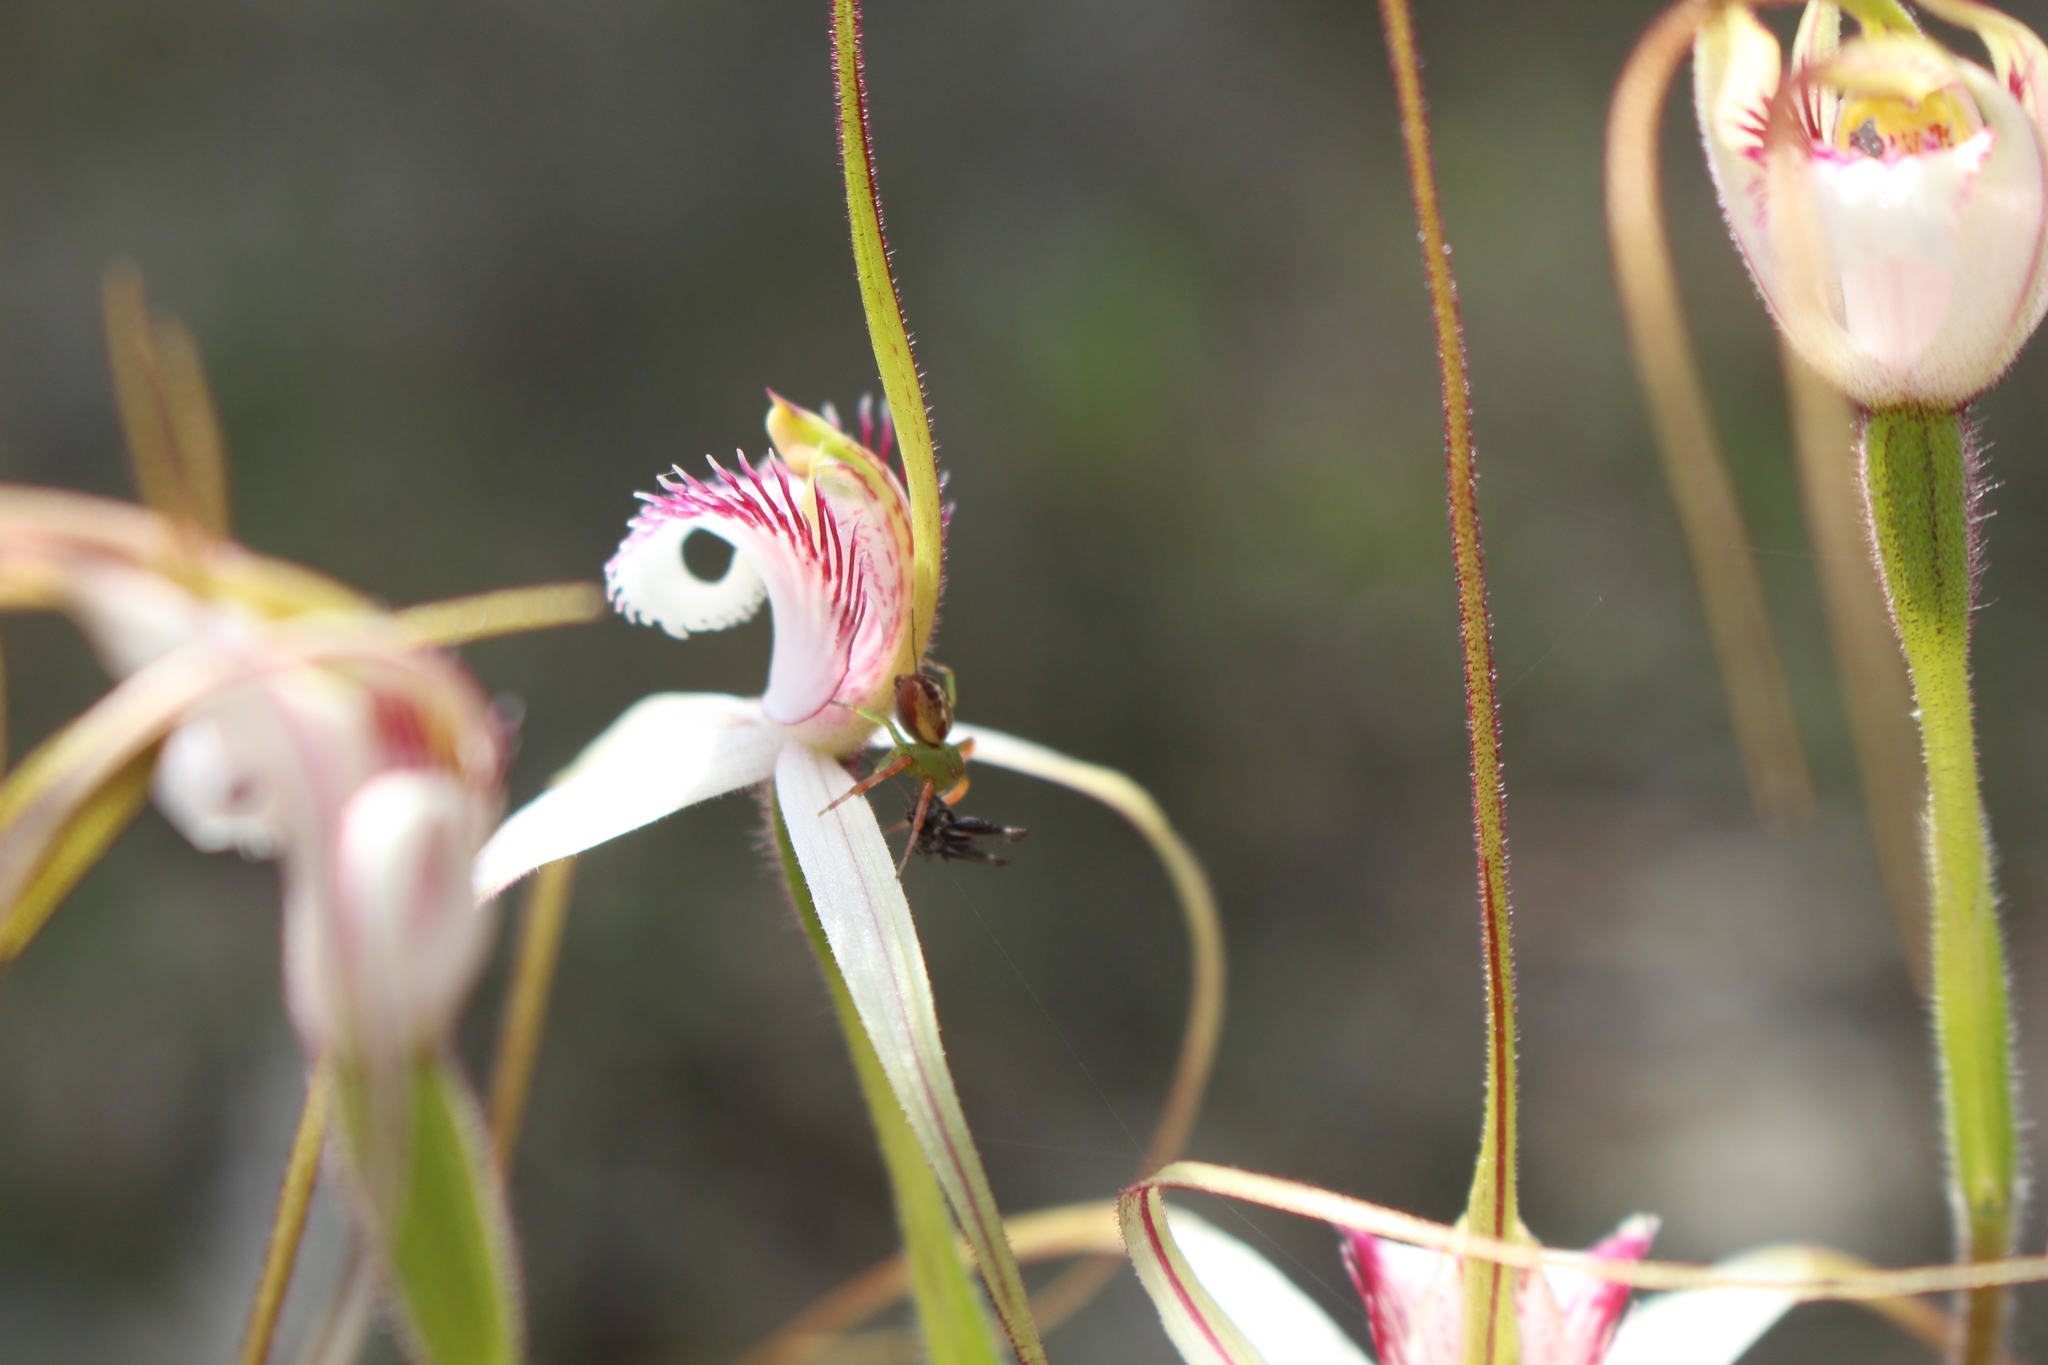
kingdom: Plantae
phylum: Tracheophyta
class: Liliopsida
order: Asparagales
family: Orchidaceae
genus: Caladenia
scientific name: Caladenia longicauda
